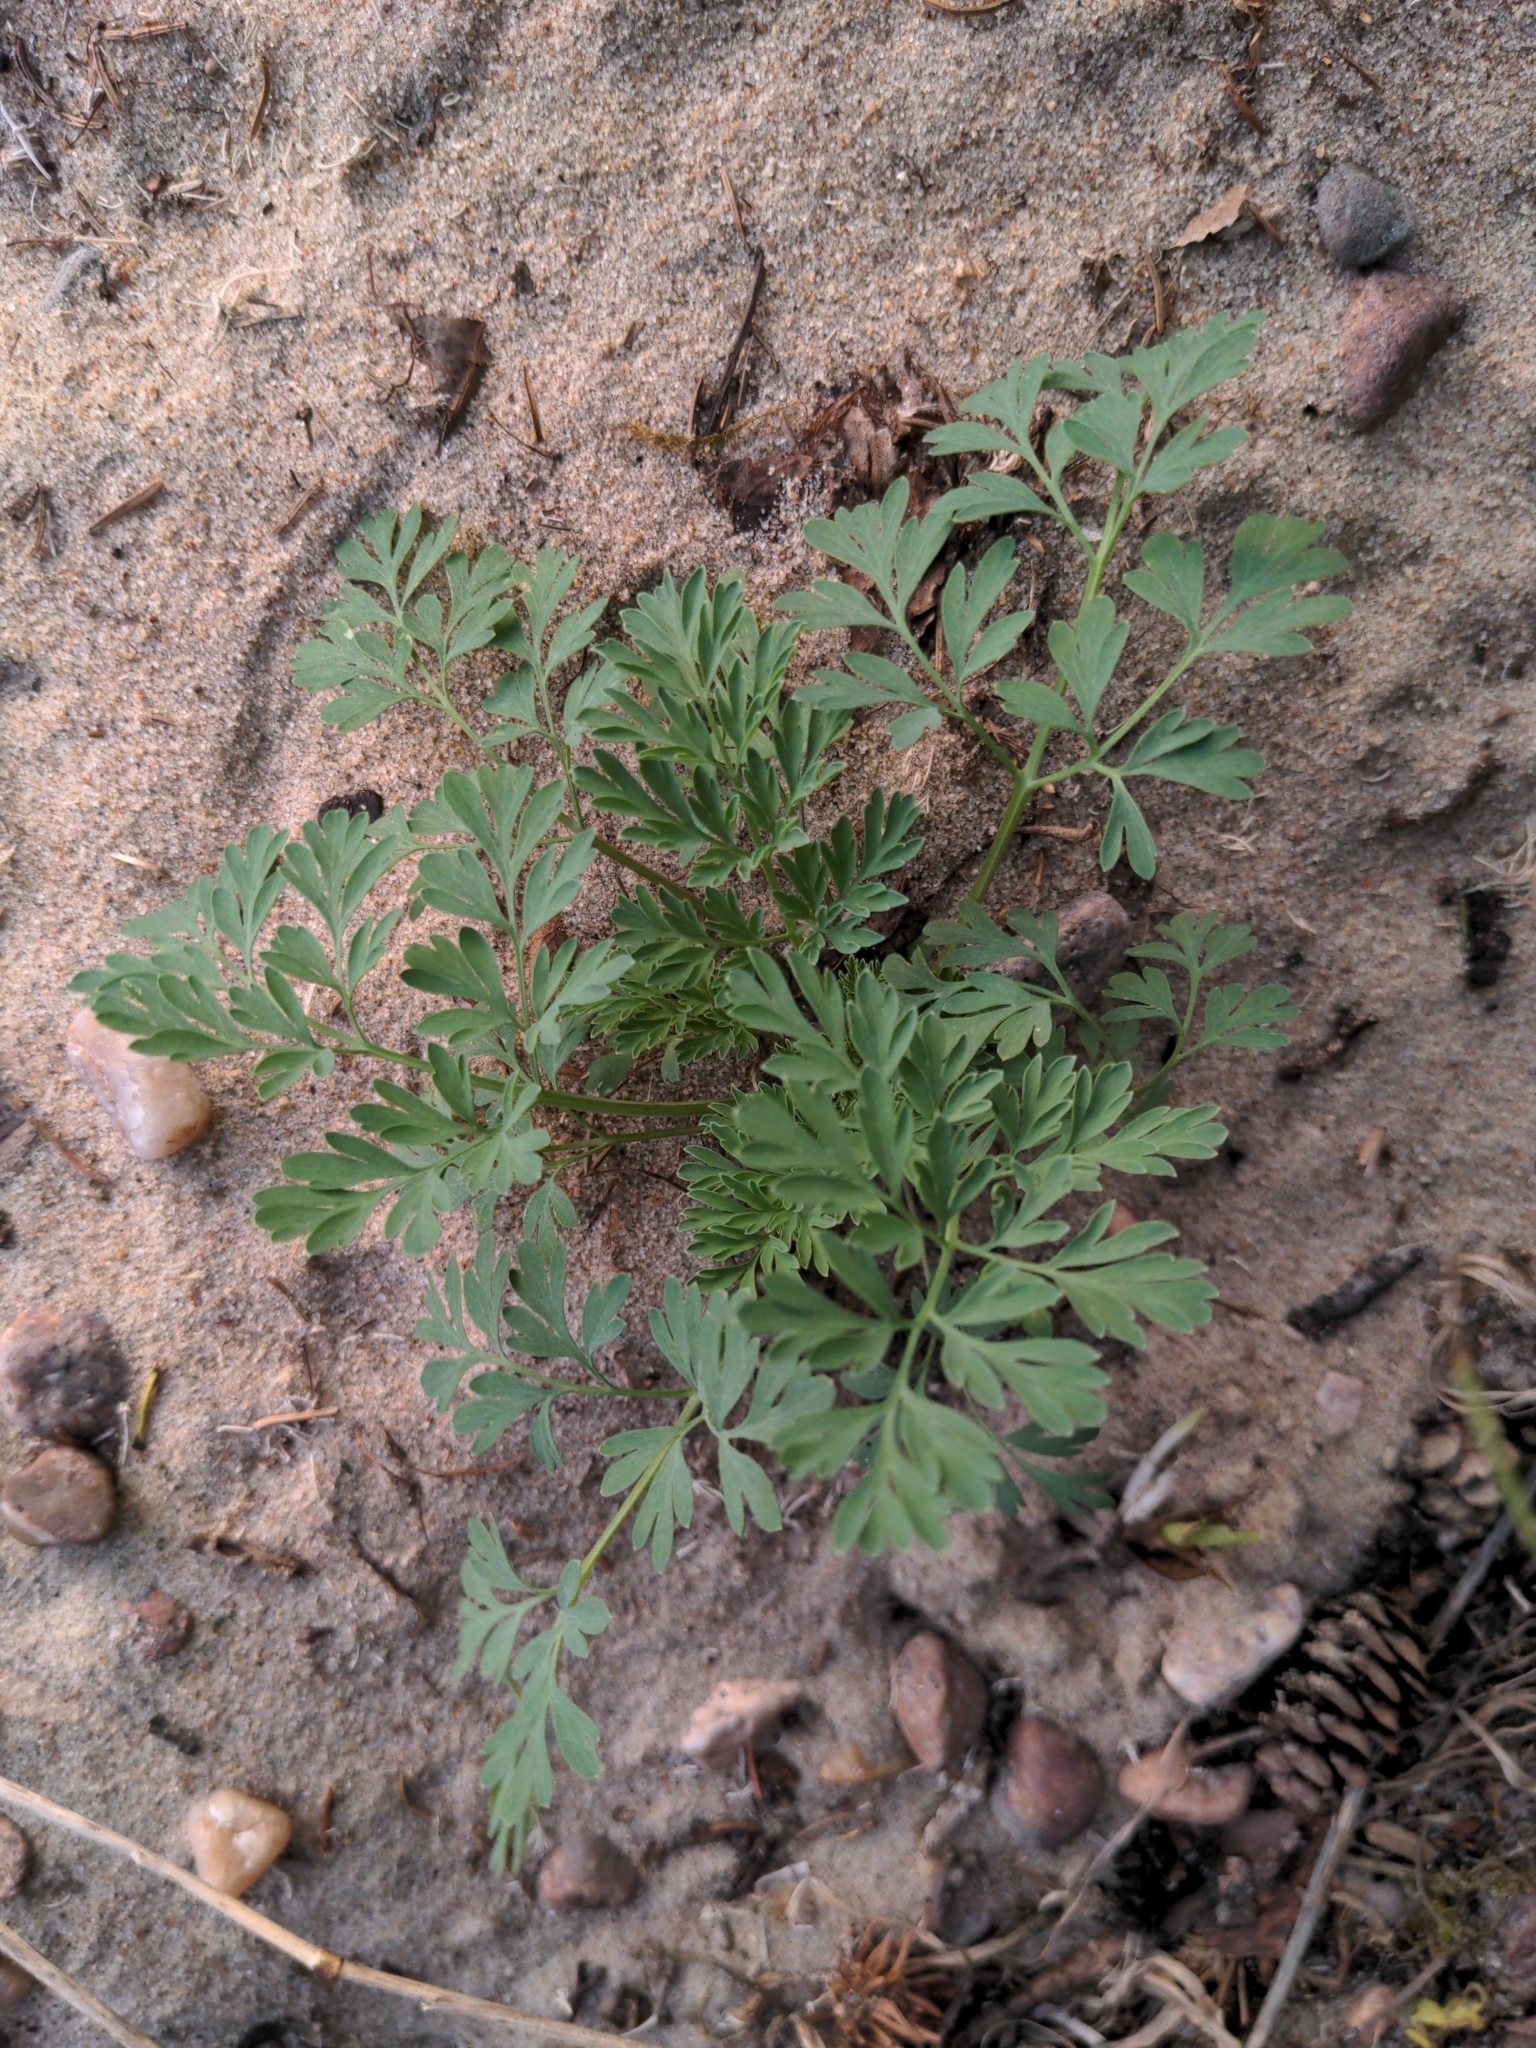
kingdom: Plantae
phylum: Tracheophyta
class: Magnoliopsida
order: Ranunculales
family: Papaveraceae
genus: Corydalis
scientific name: Corydalis aurea
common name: Golden corydalis
